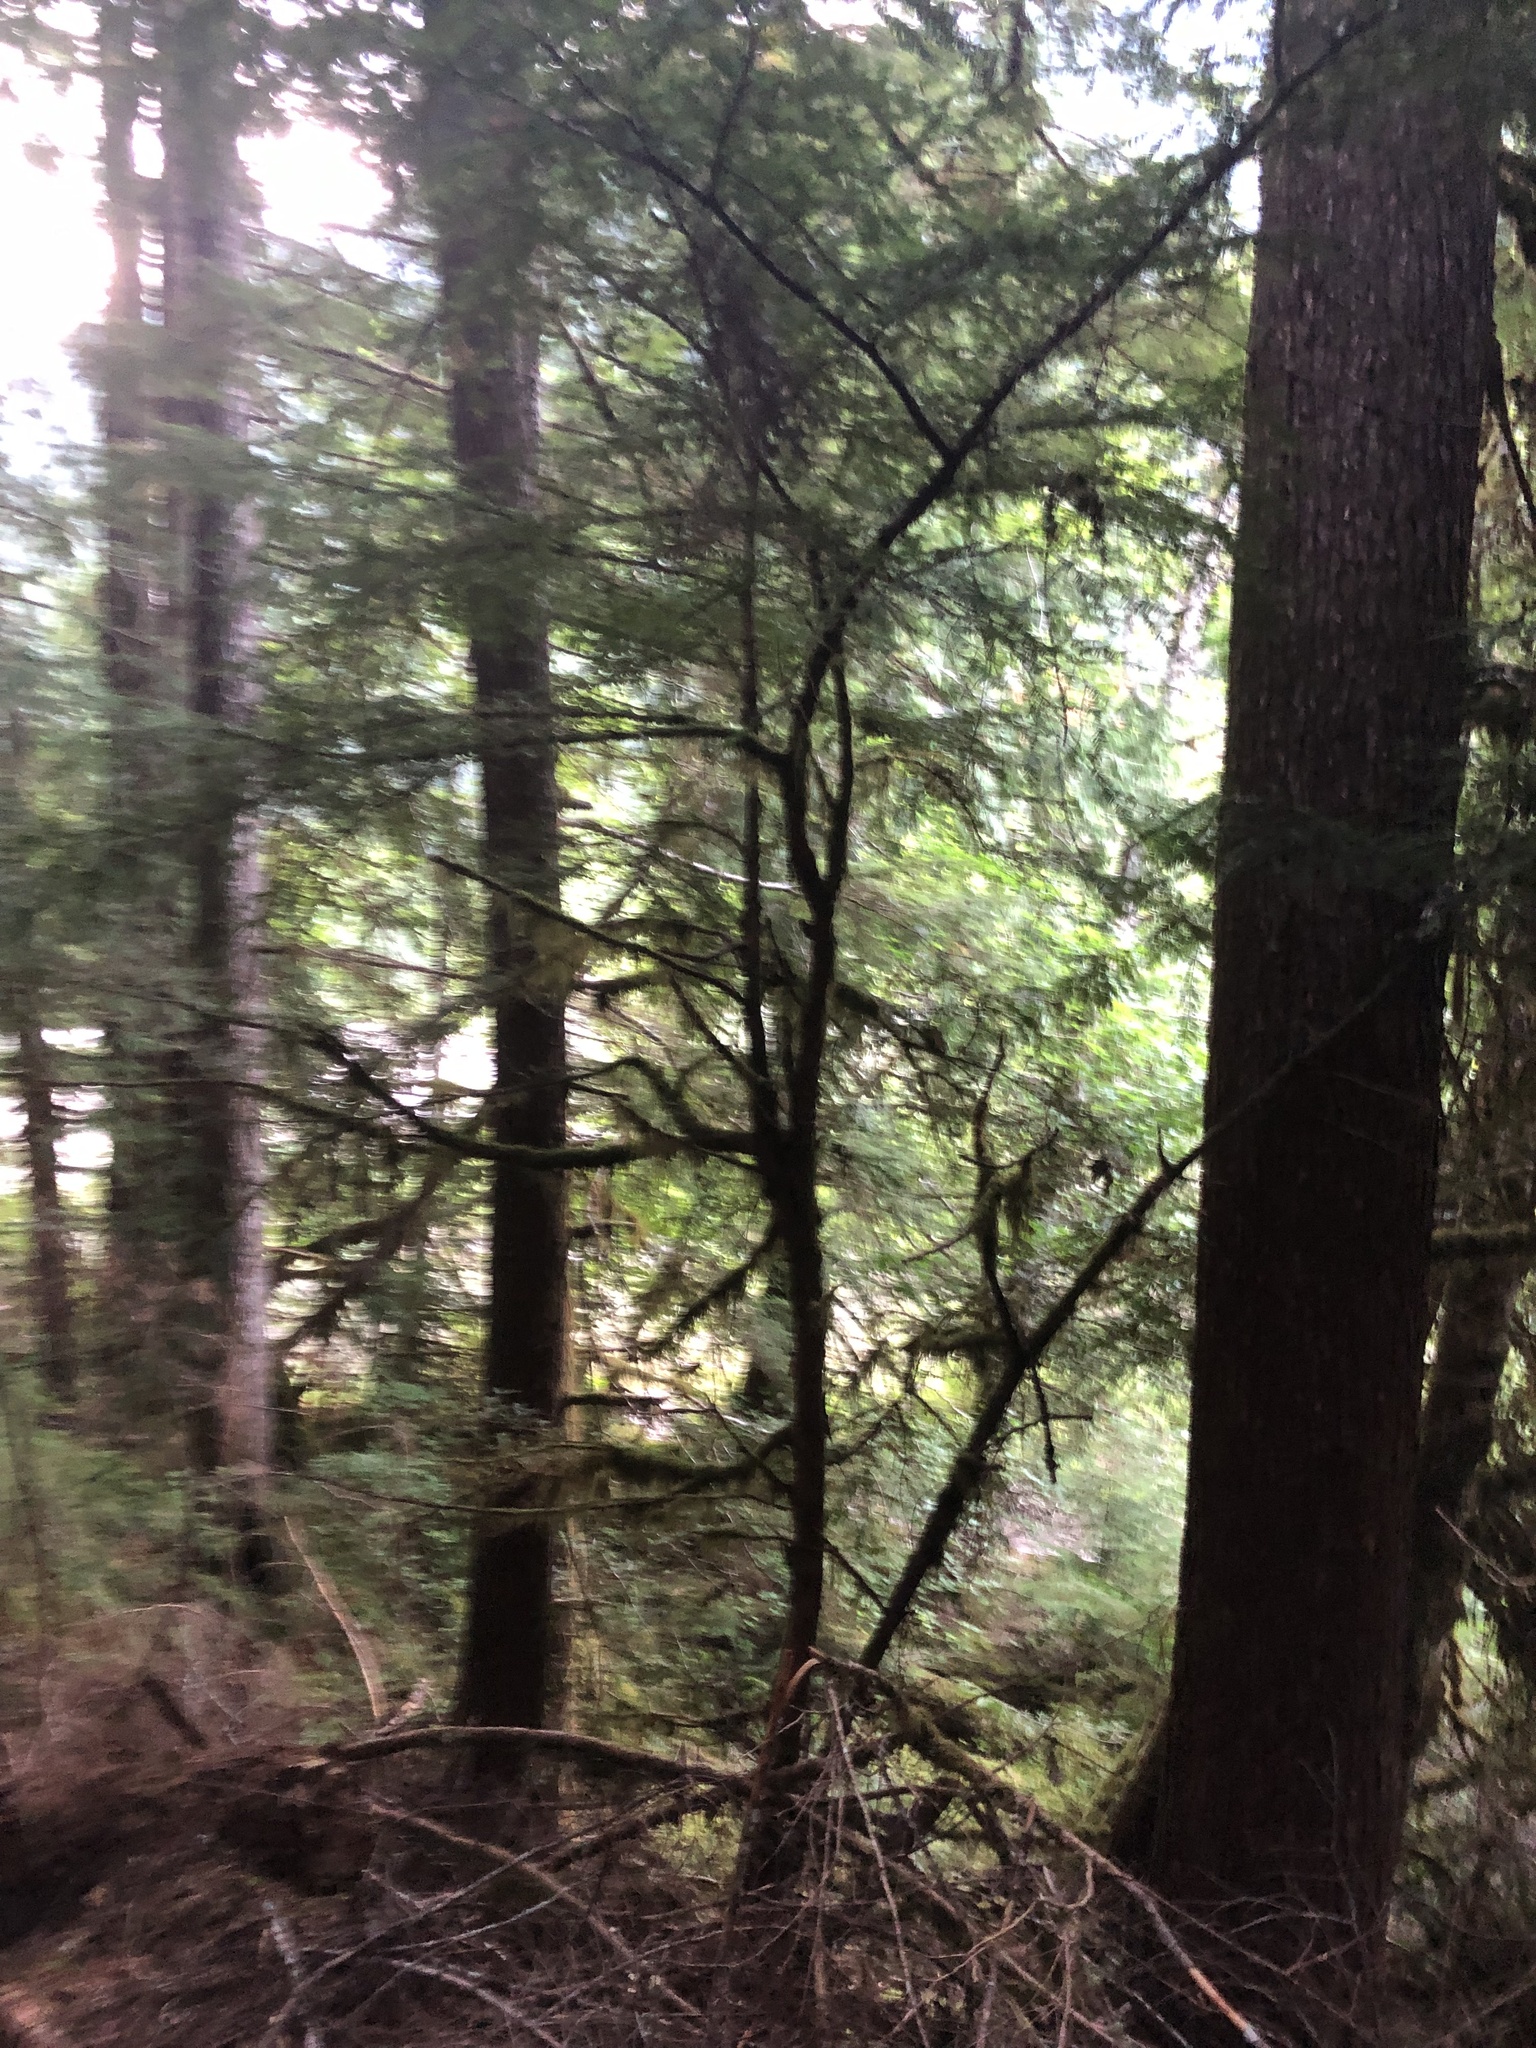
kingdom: Plantae
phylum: Tracheophyta
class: Pinopsida
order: Pinales
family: Taxaceae
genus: Taxus
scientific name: Taxus brevifolia
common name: Pacific yew
